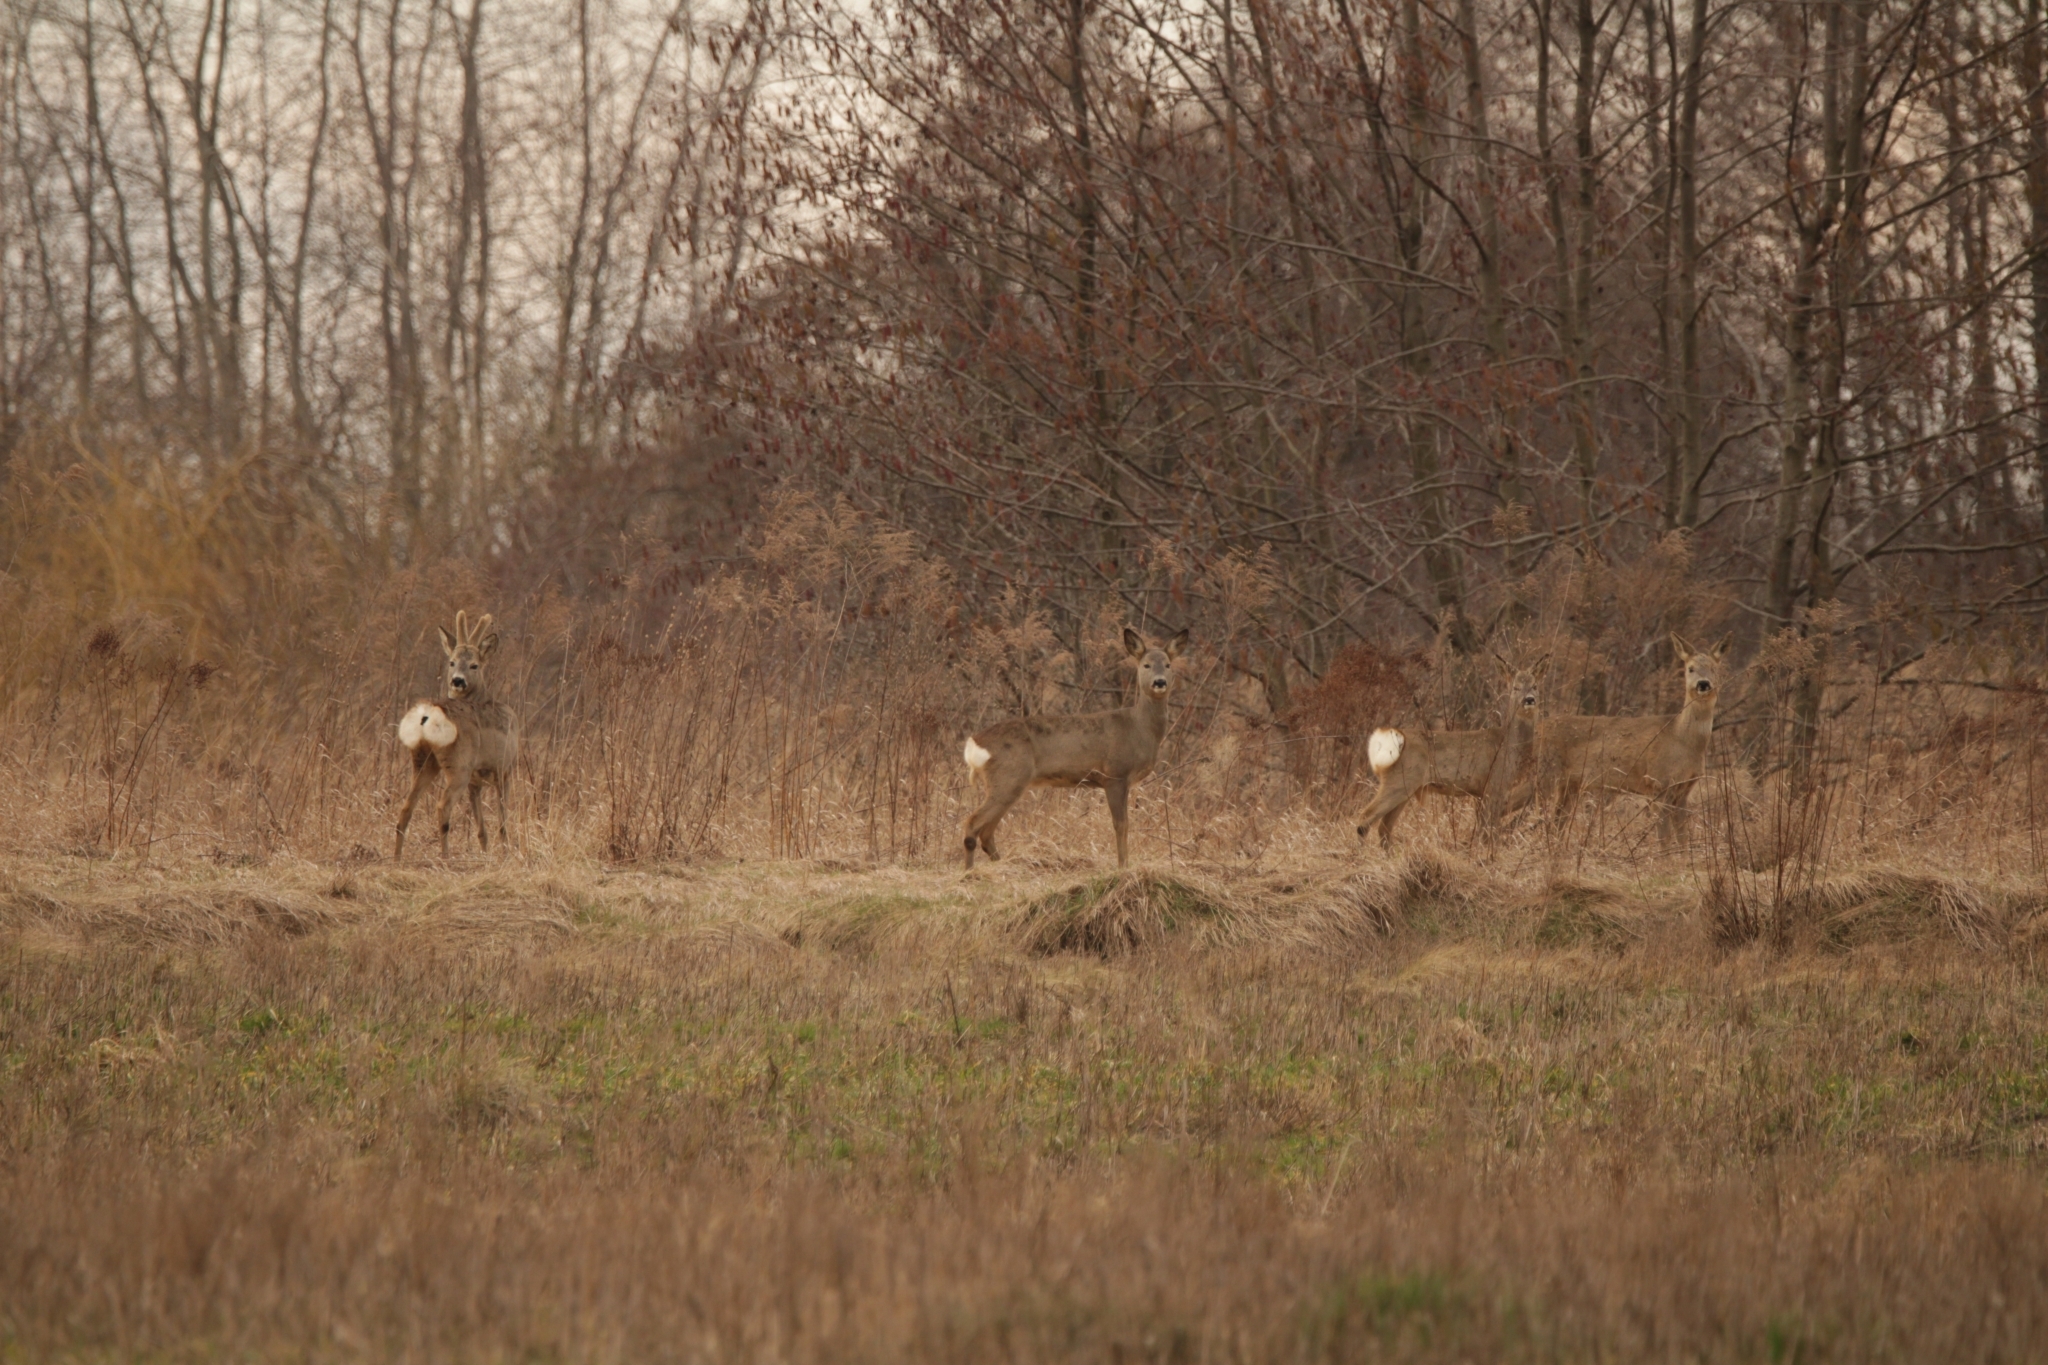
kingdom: Animalia
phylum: Chordata
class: Mammalia
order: Artiodactyla
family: Cervidae
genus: Capreolus
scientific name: Capreolus capreolus
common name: Western roe deer
